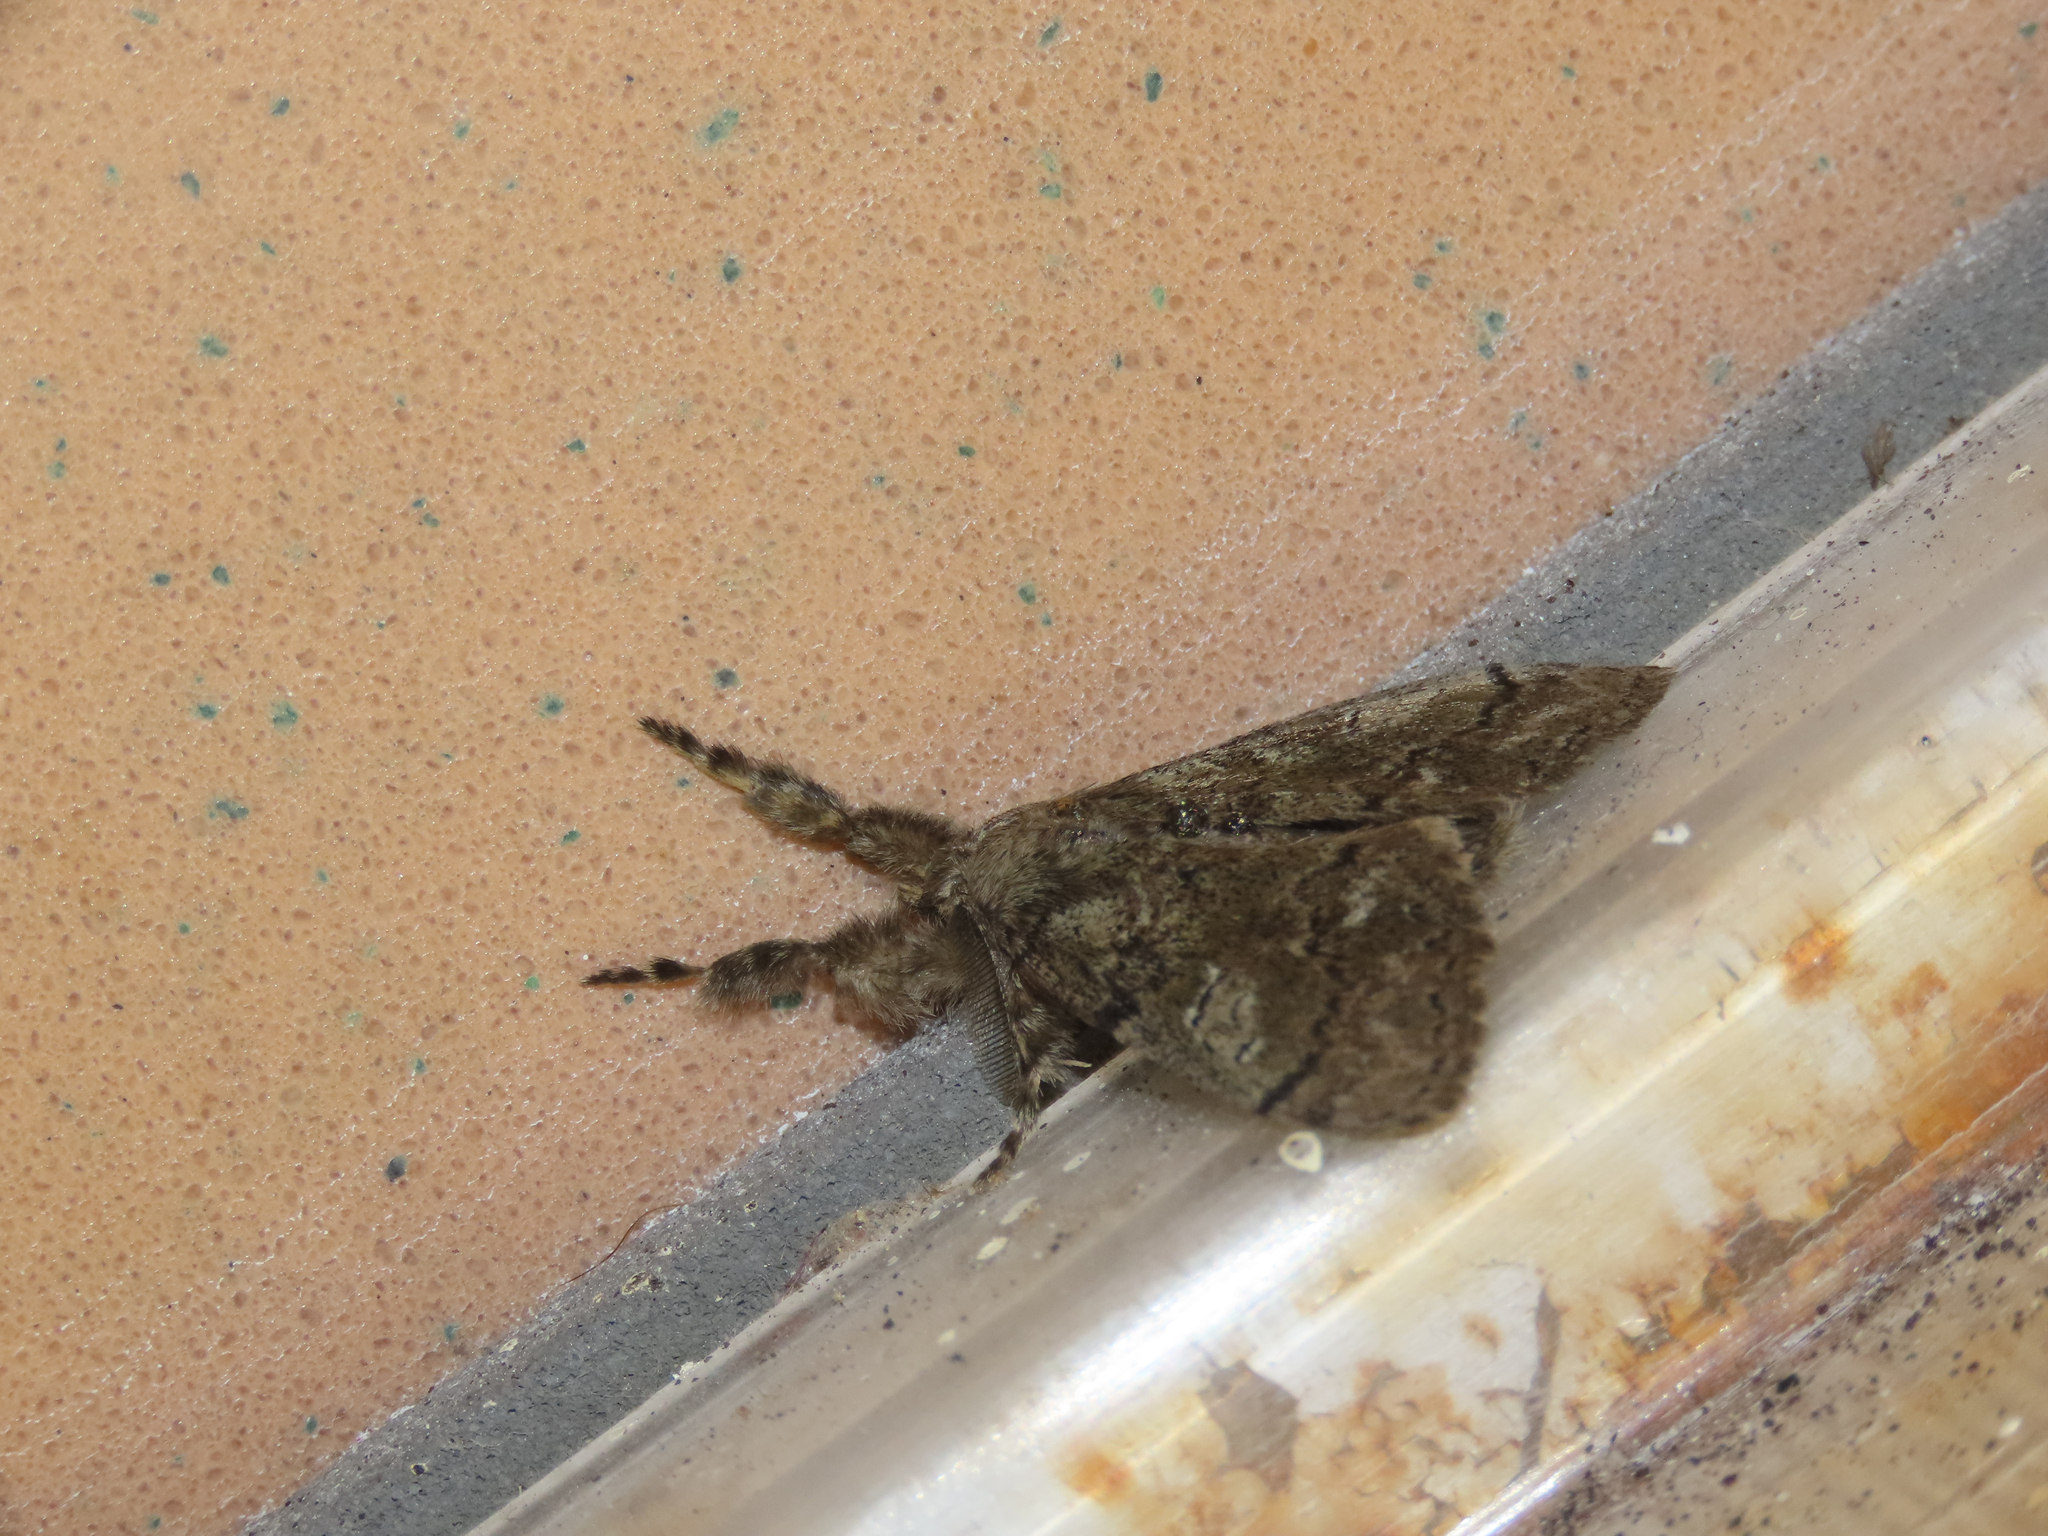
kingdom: Animalia
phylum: Arthropoda
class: Insecta
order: Lepidoptera
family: Erebidae
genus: Dasychira
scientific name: Dasychira obliquata
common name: Streaked tussock moth
